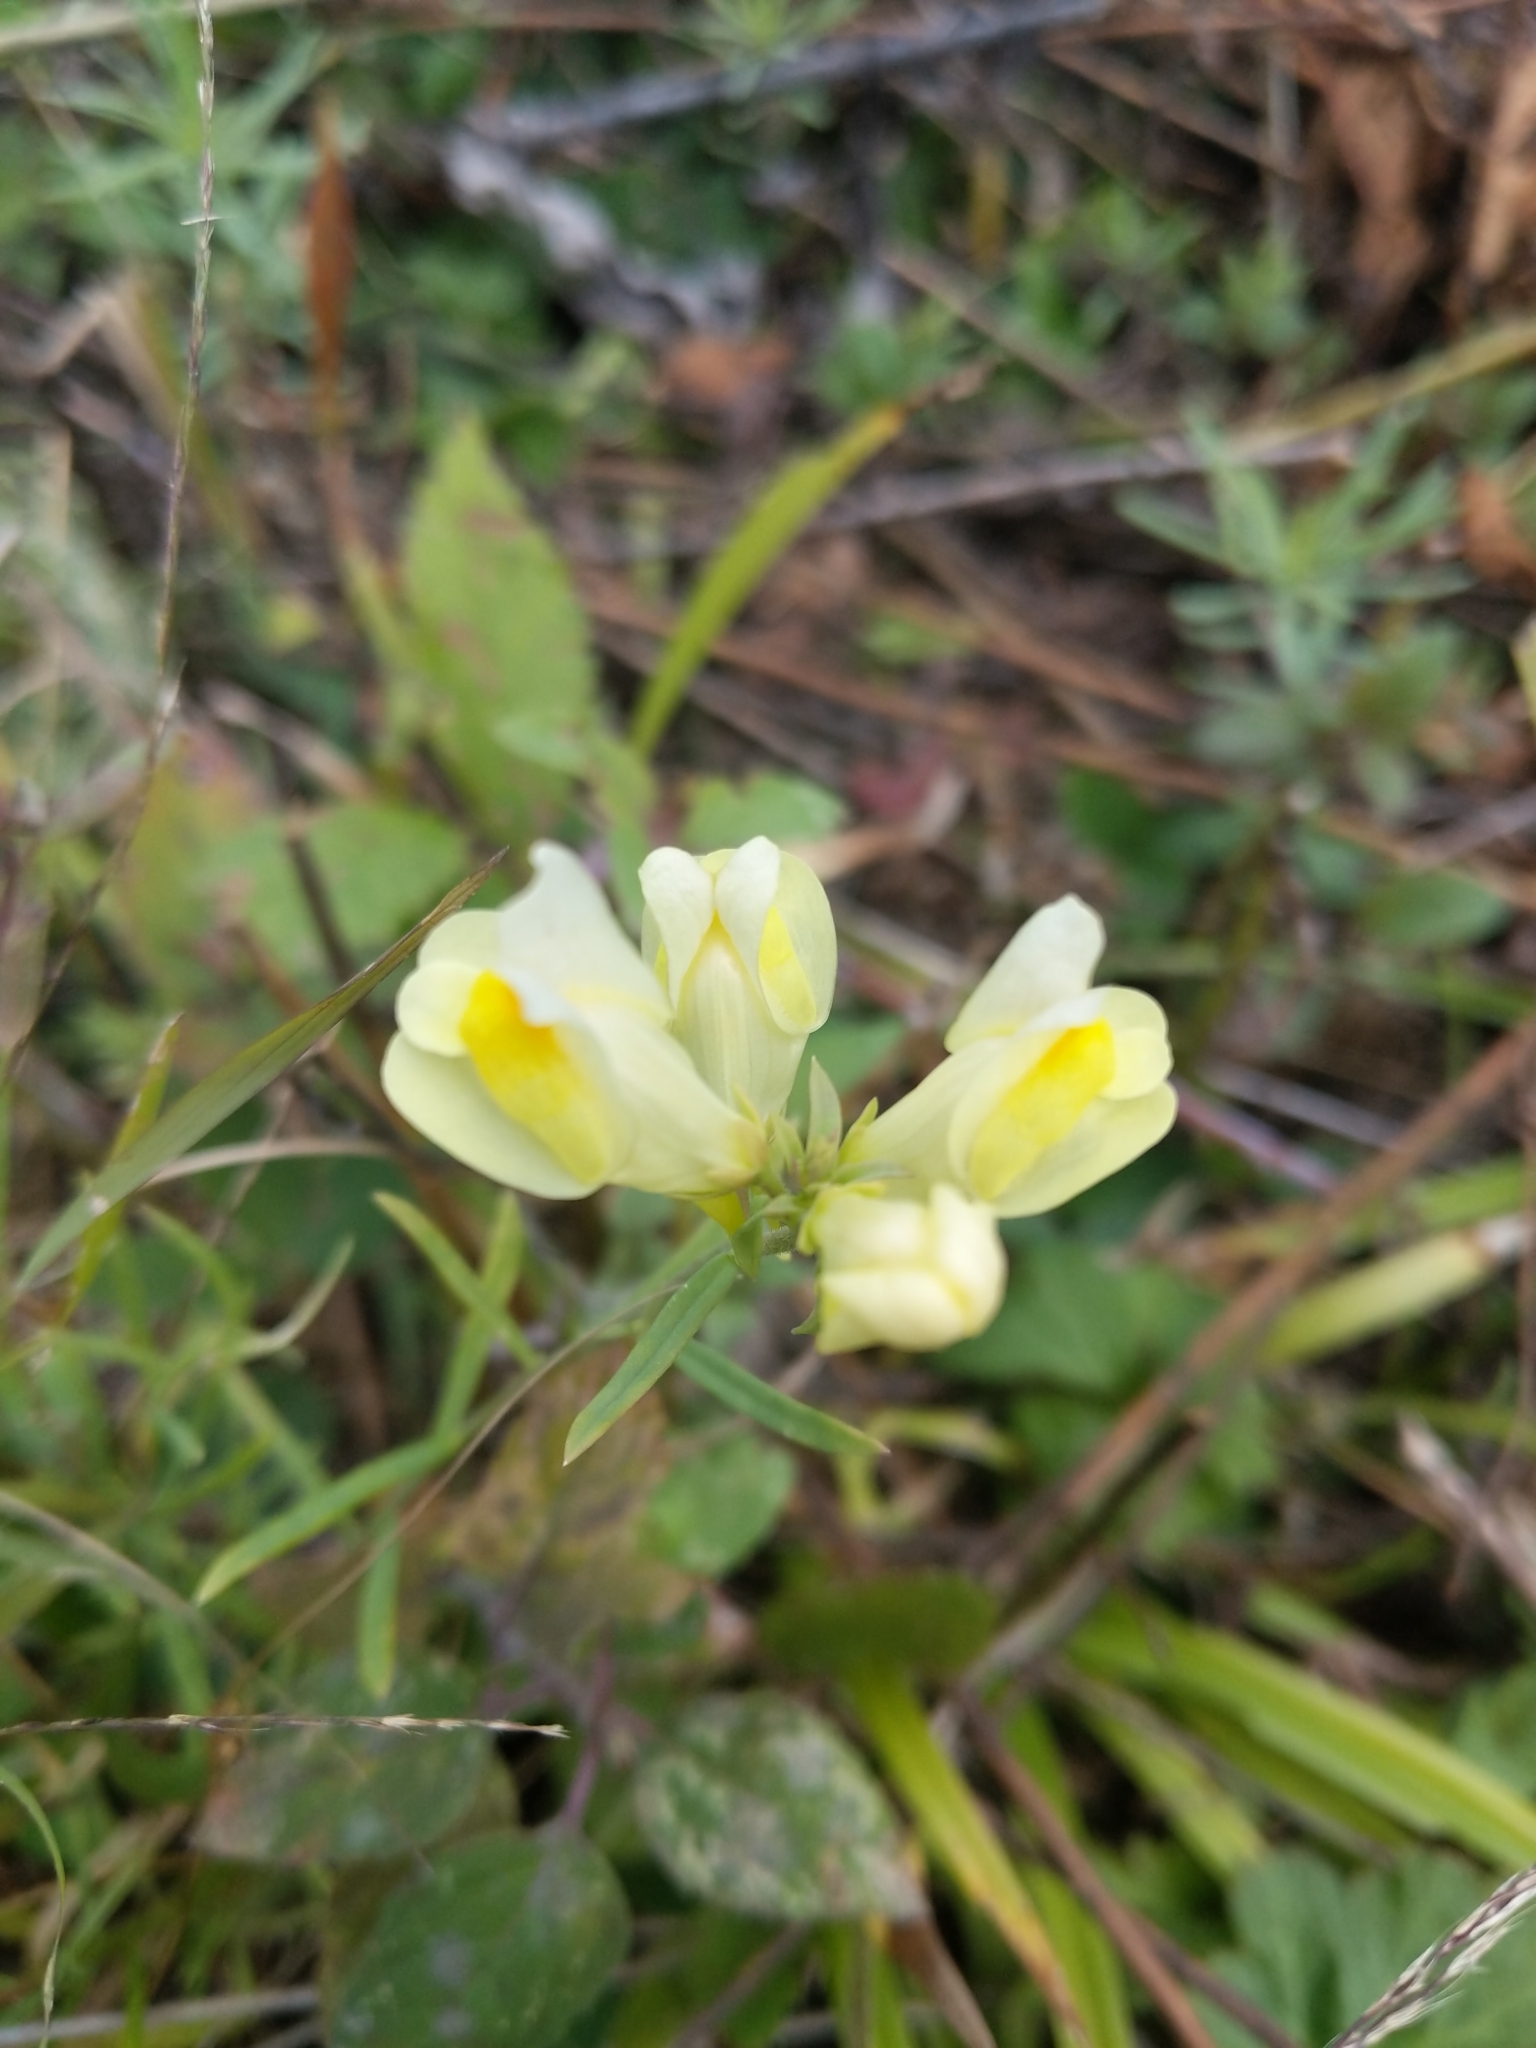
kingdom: Plantae
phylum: Tracheophyta
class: Magnoliopsida
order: Lamiales
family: Plantaginaceae
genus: Linaria
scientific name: Linaria vulgaris
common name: Butter and eggs
